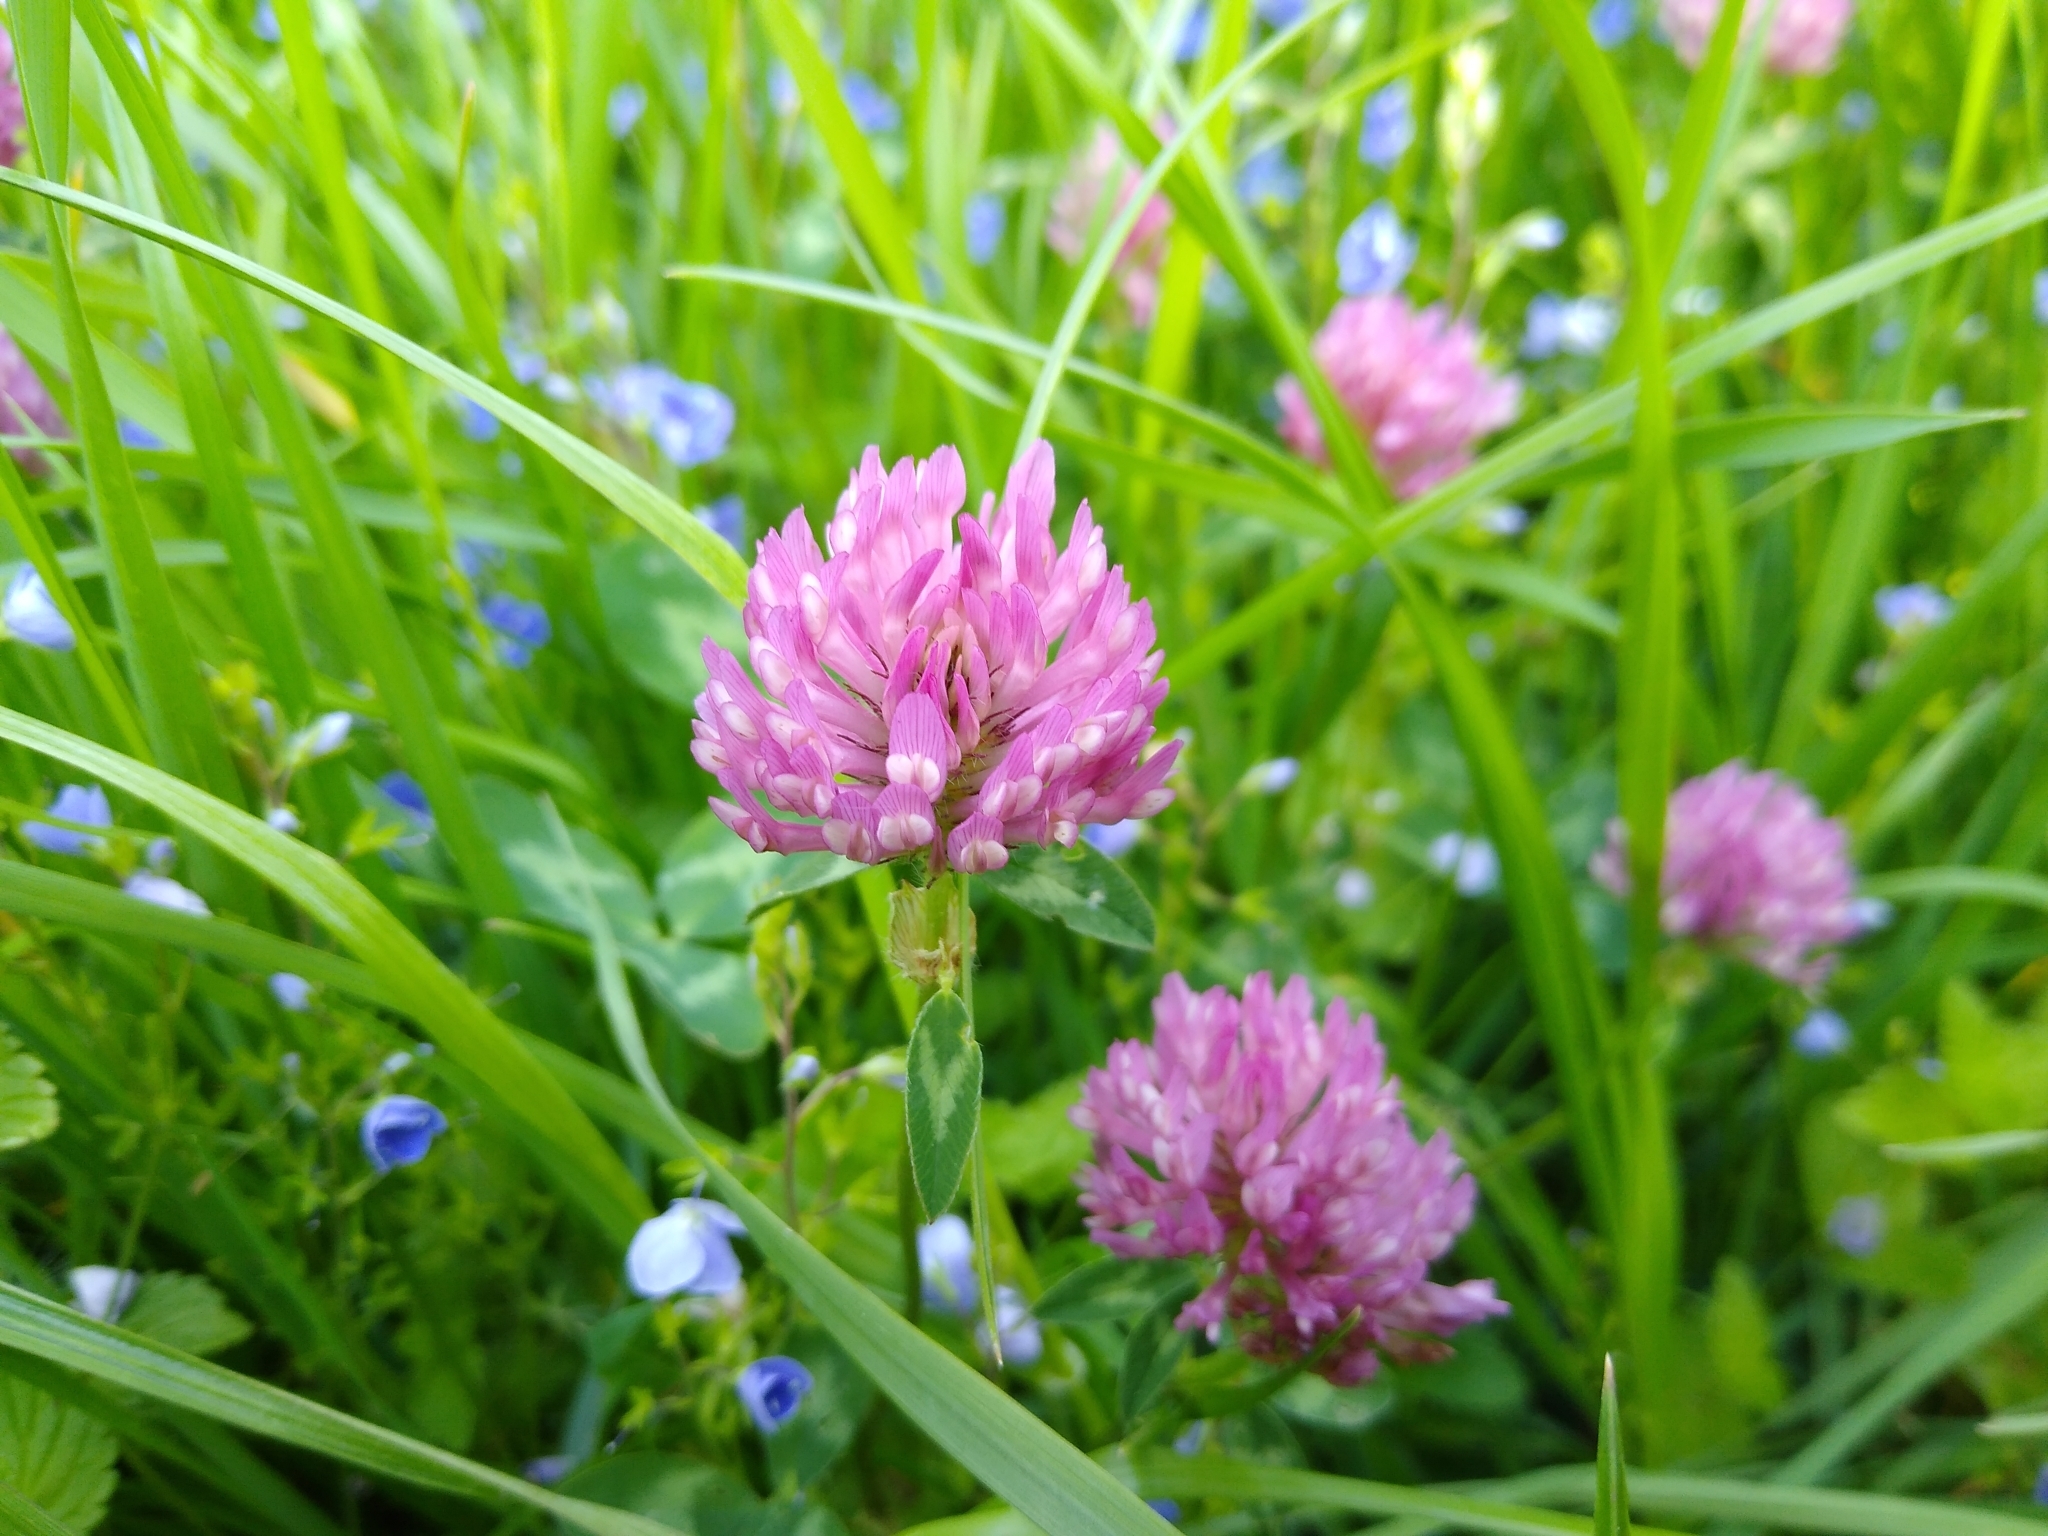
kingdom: Plantae
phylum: Tracheophyta
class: Magnoliopsida
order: Fabales
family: Fabaceae
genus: Trifolium
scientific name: Trifolium pratense
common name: Red clover
